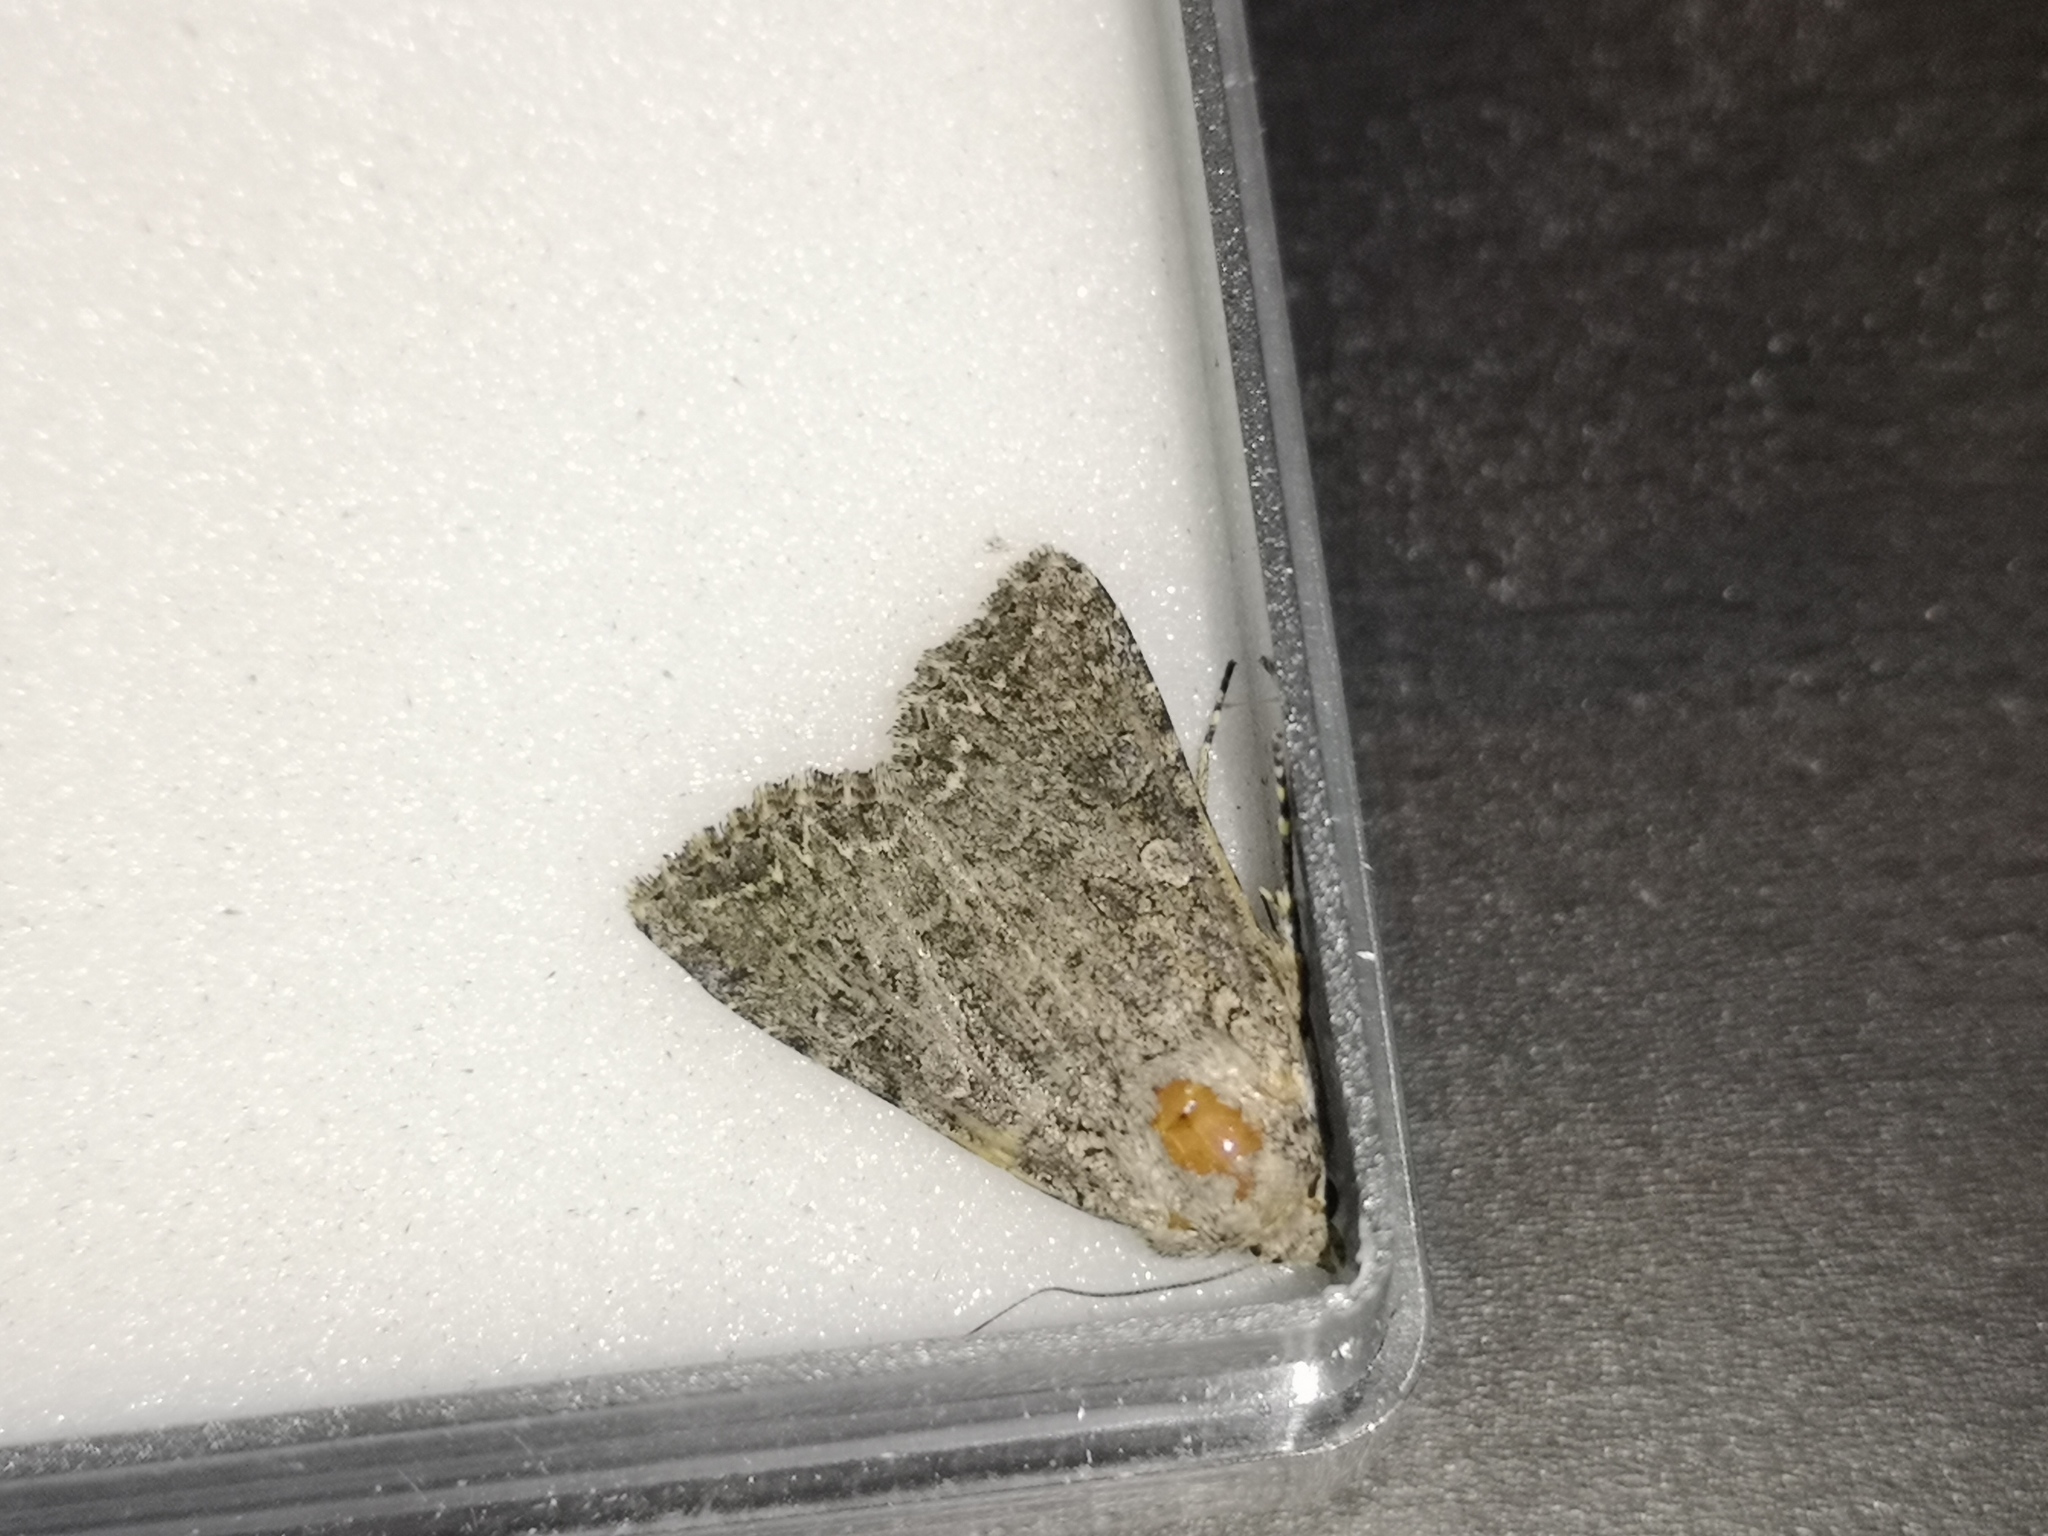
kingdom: Animalia
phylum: Arthropoda
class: Insecta
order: Lepidoptera
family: Noctuidae
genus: Anarta
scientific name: Anarta trifolii
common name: Clover cutworm moth
